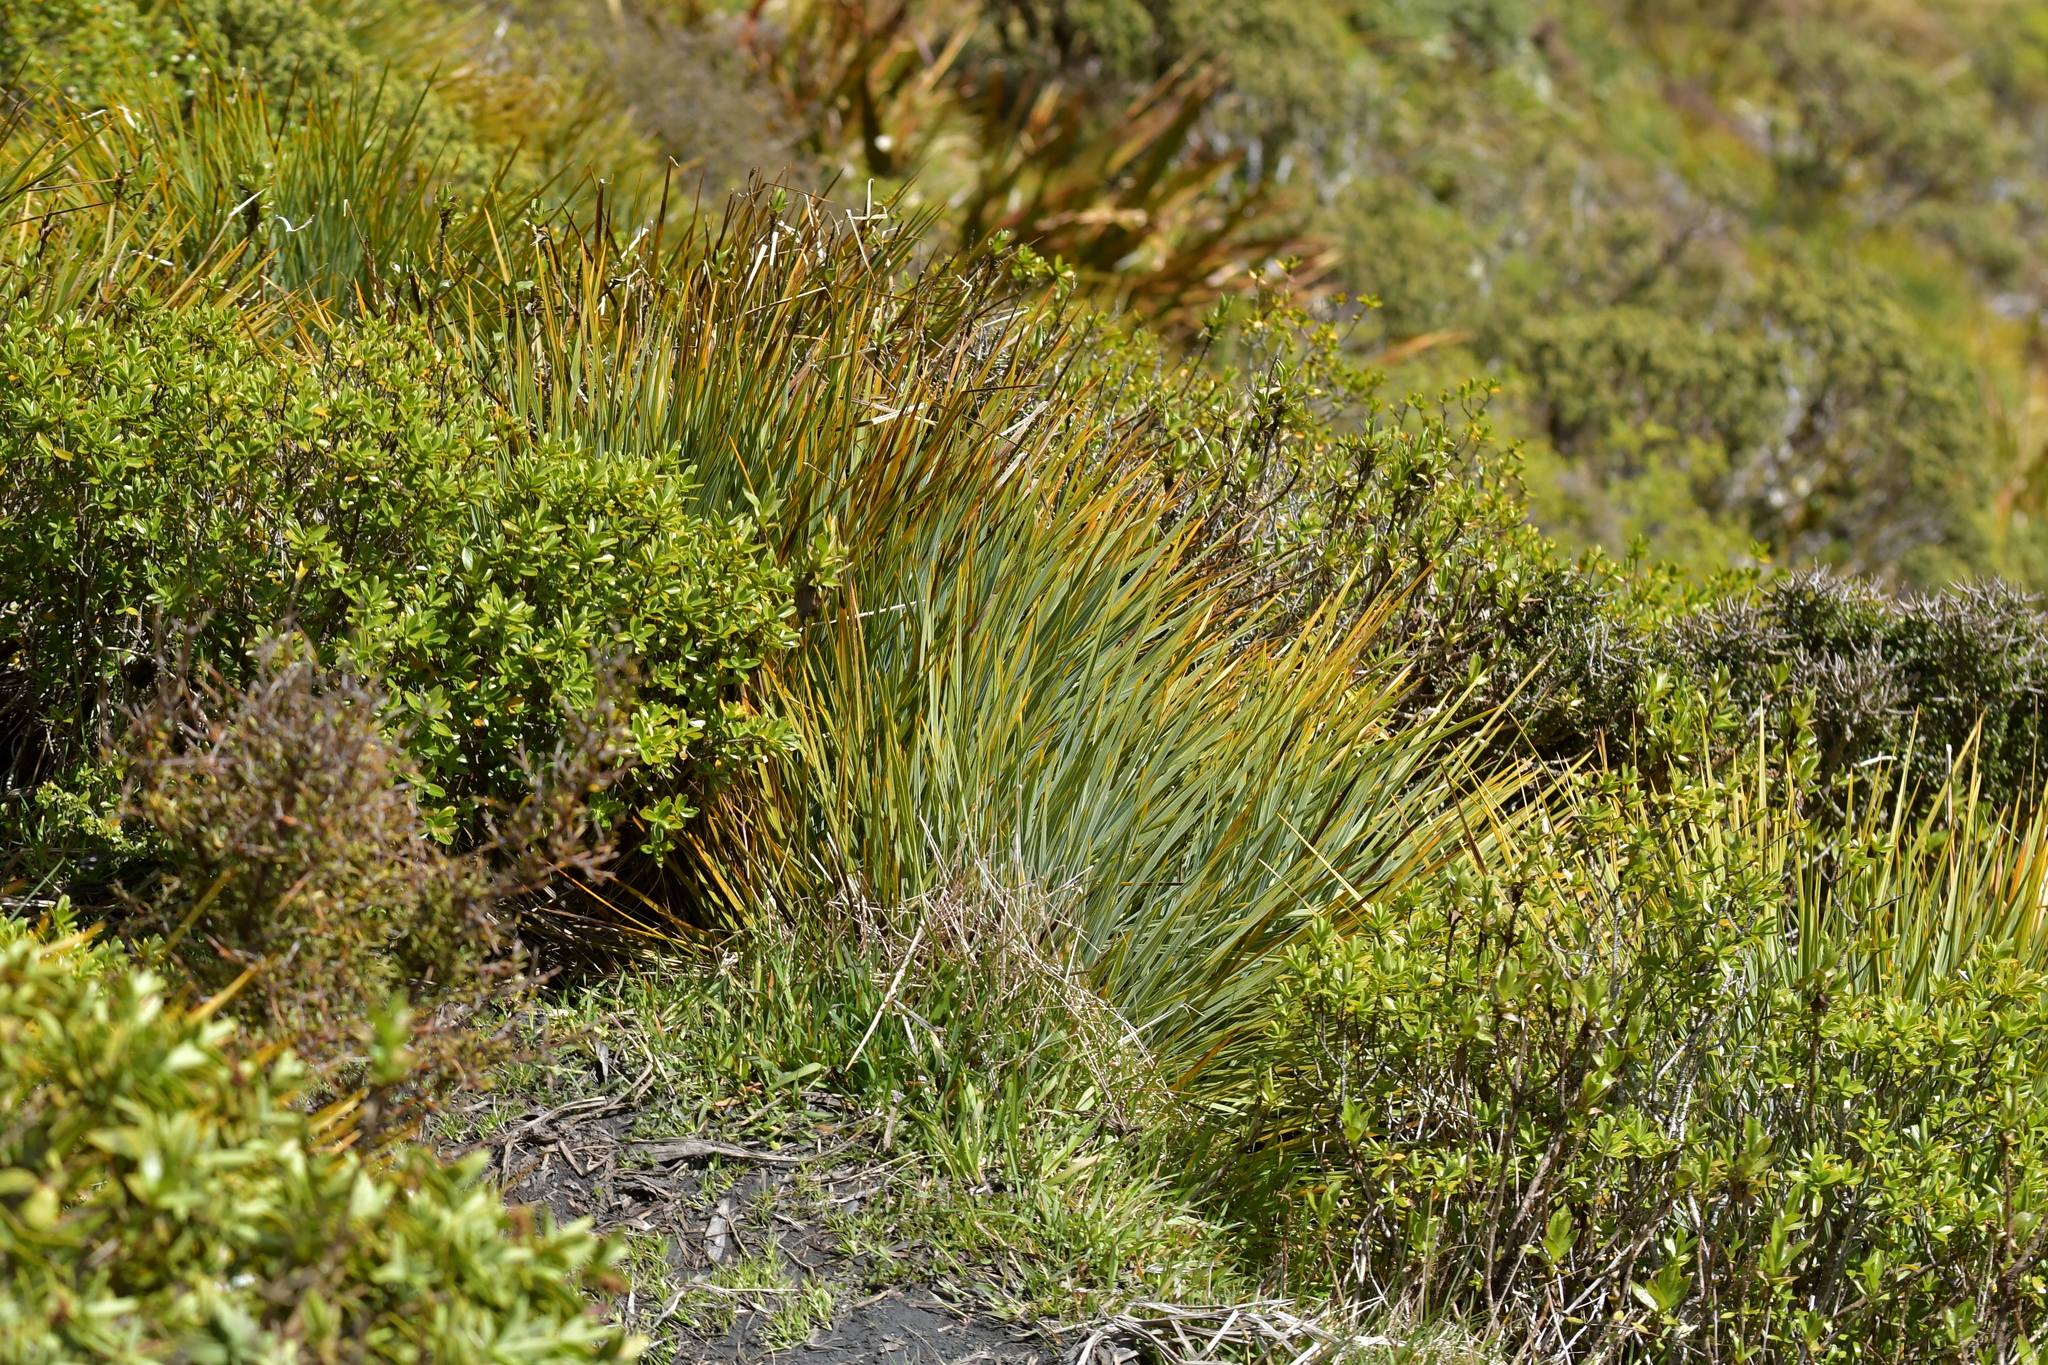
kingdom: Plantae
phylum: Tracheophyta
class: Magnoliopsida
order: Apiales
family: Apiaceae
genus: Aciphylla
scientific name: Aciphylla glaucescens
